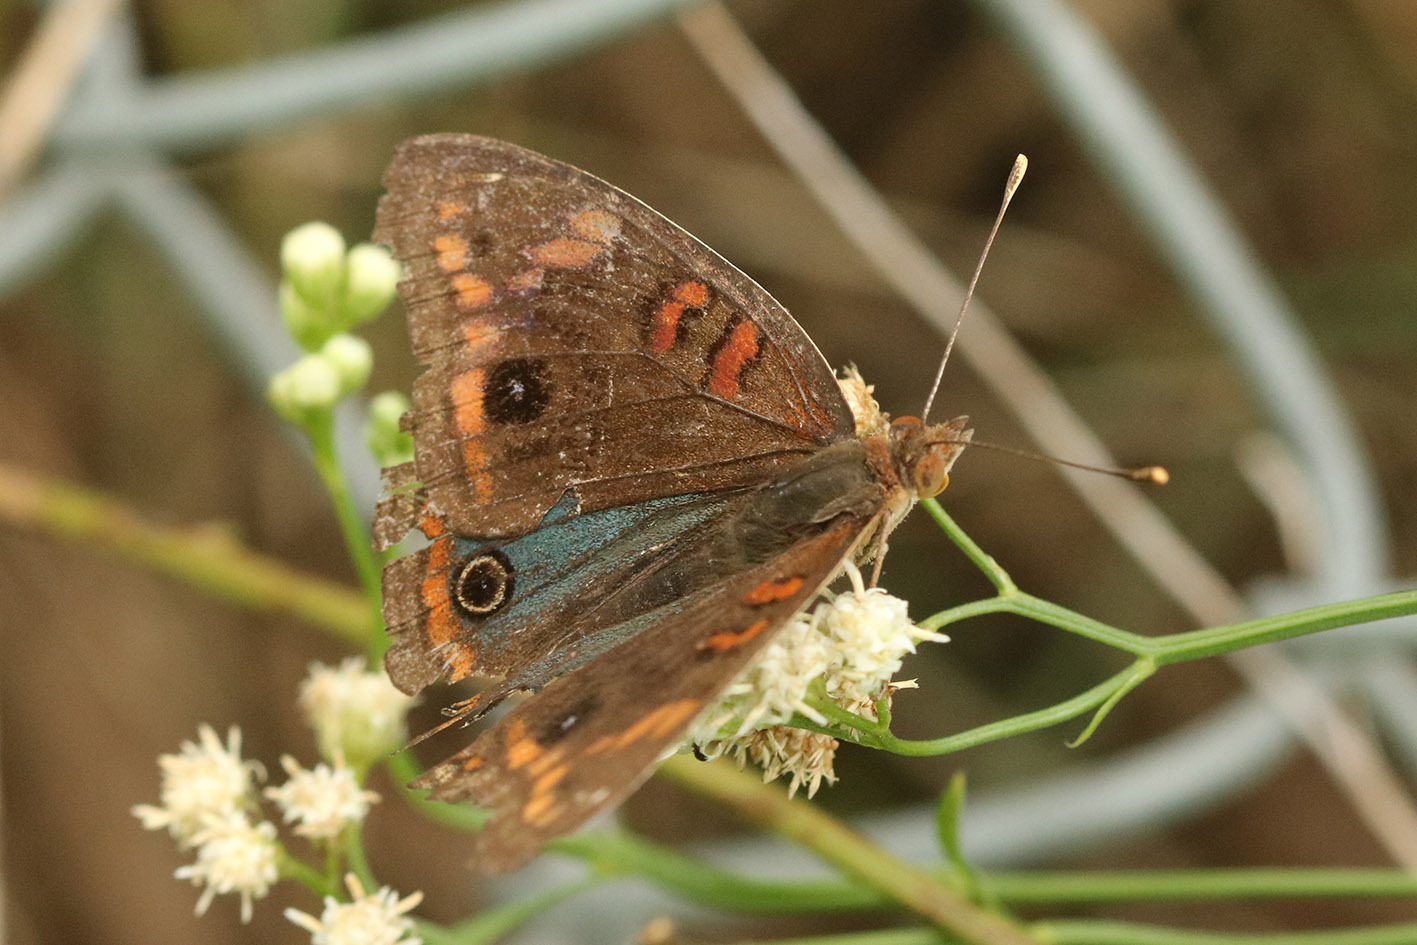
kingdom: Animalia
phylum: Arthropoda
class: Insecta
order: Lepidoptera
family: Nymphalidae
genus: Junonia
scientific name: Junonia lavinia
